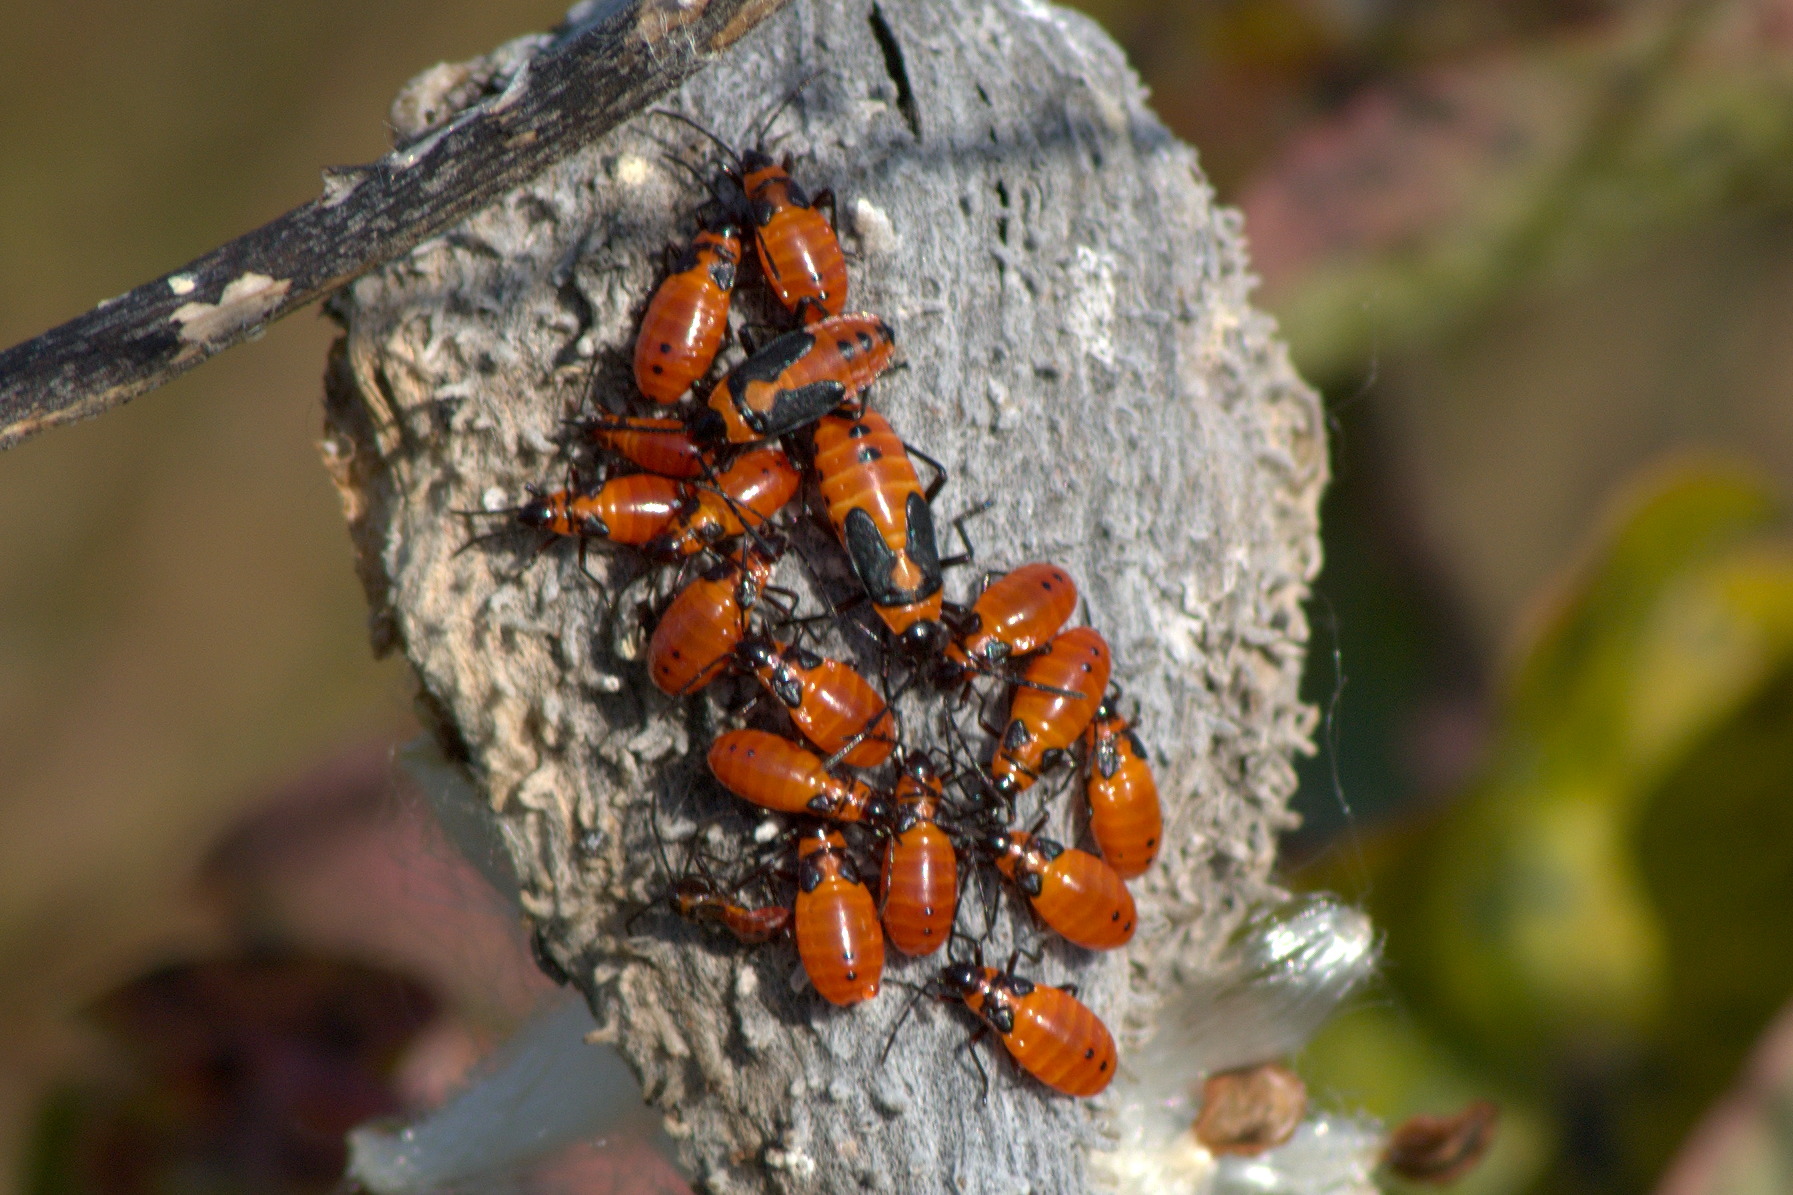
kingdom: Animalia
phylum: Arthropoda
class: Insecta
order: Hemiptera
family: Lygaeidae
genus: Oncopeltus
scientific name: Oncopeltus fasciatus
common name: Large milkweed bug
